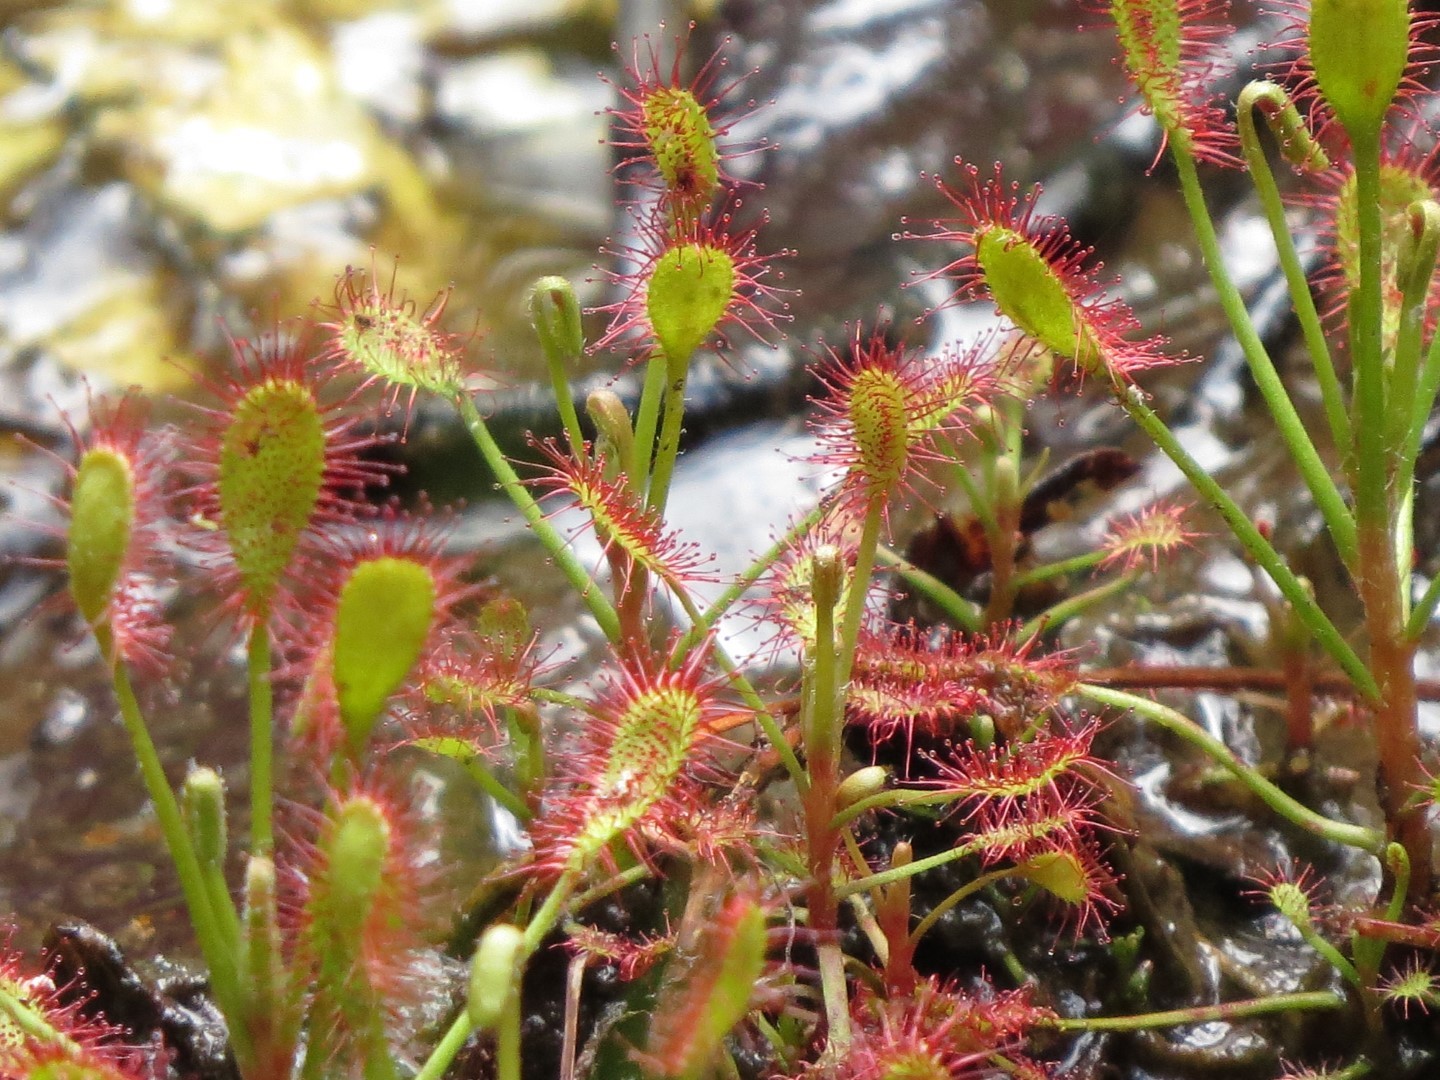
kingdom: Plantae
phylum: Tracheophyta
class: Magnoliopsida
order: Caryophyllales
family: Droseraceae
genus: Drosera
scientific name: Drosera madagascariensis
